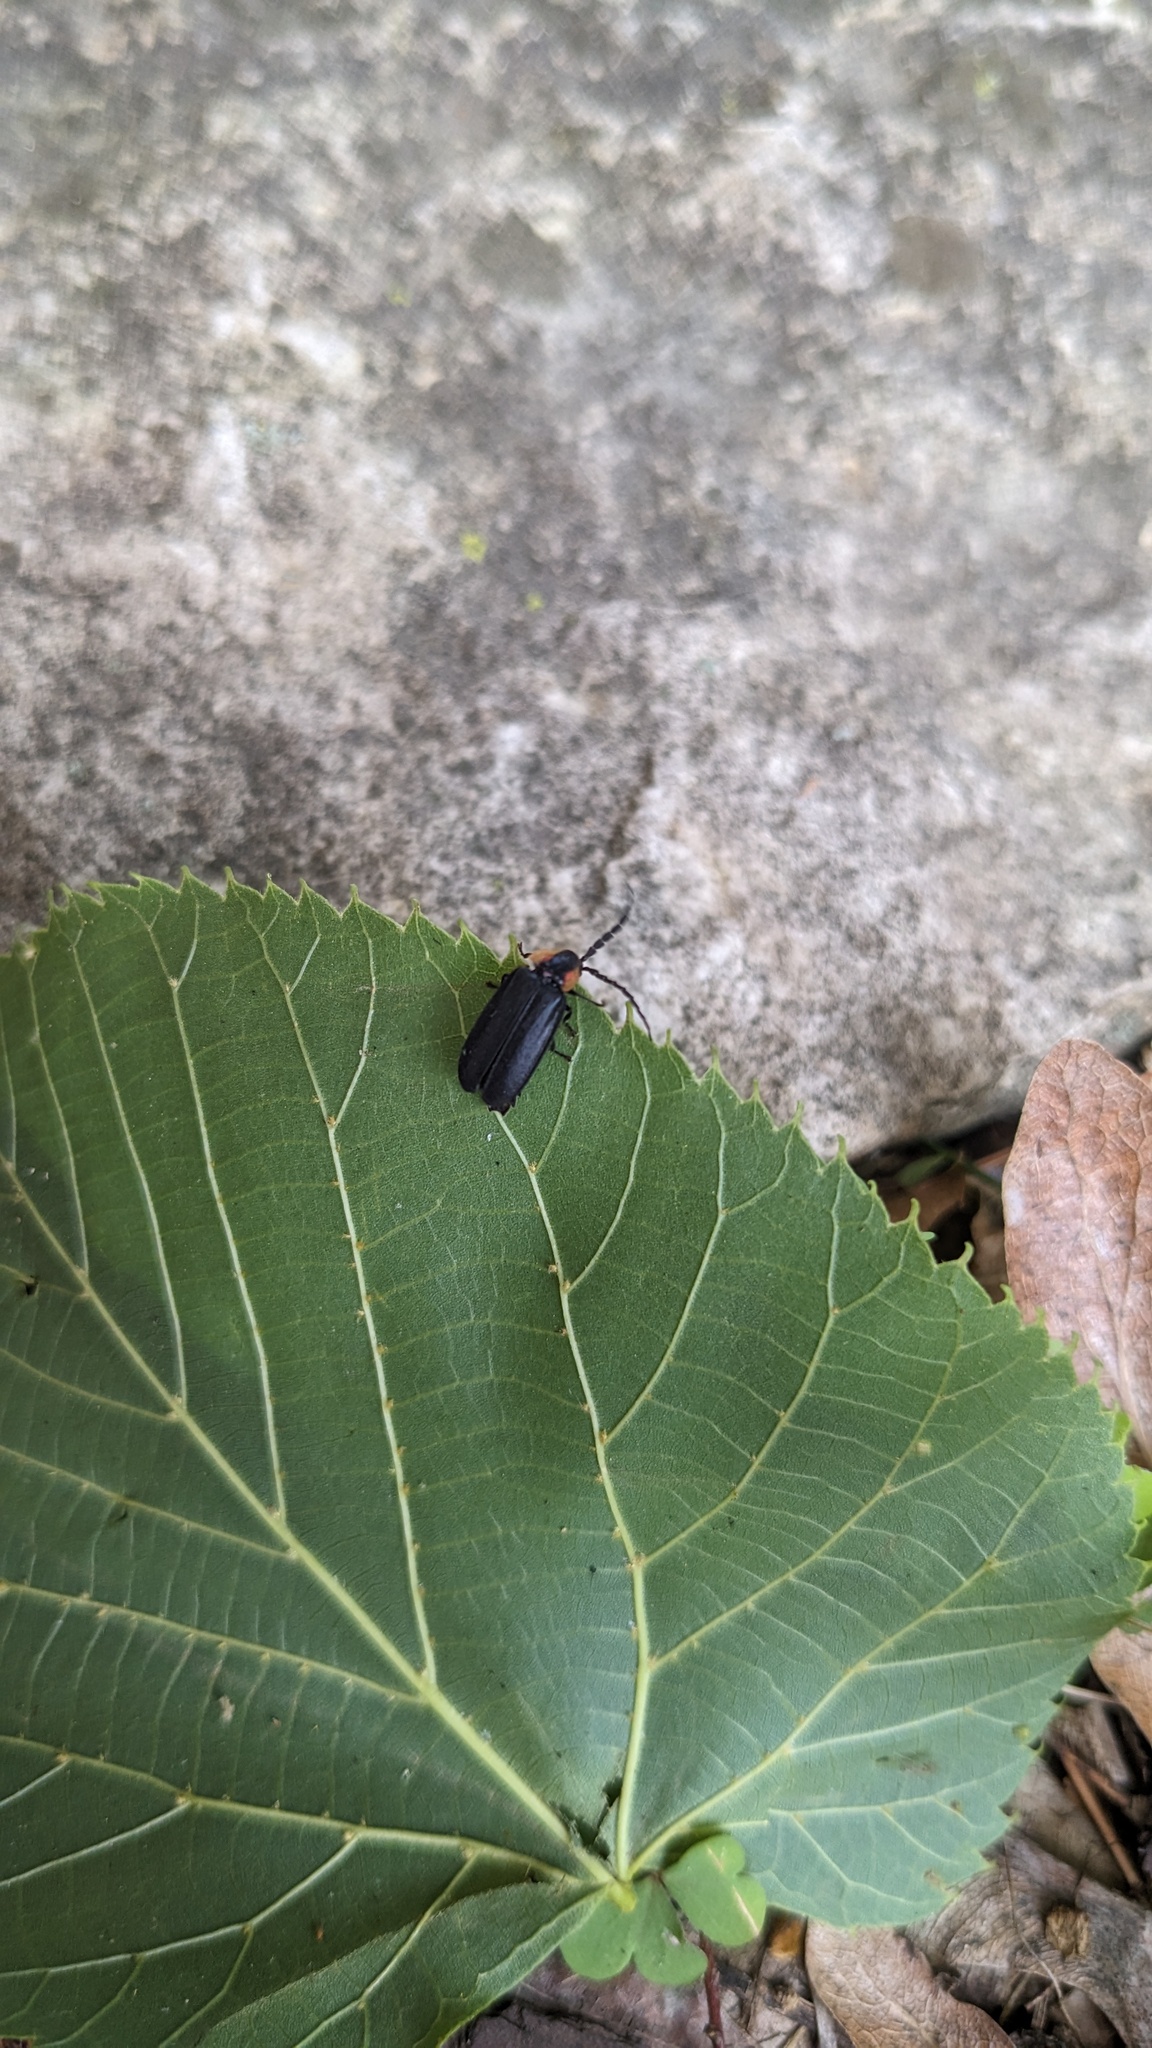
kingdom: Animalia
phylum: Arthropoda
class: Insecta
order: Coleoptera
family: Lampyridae
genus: Lucidota
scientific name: Lucidota atra
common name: Black firefly
